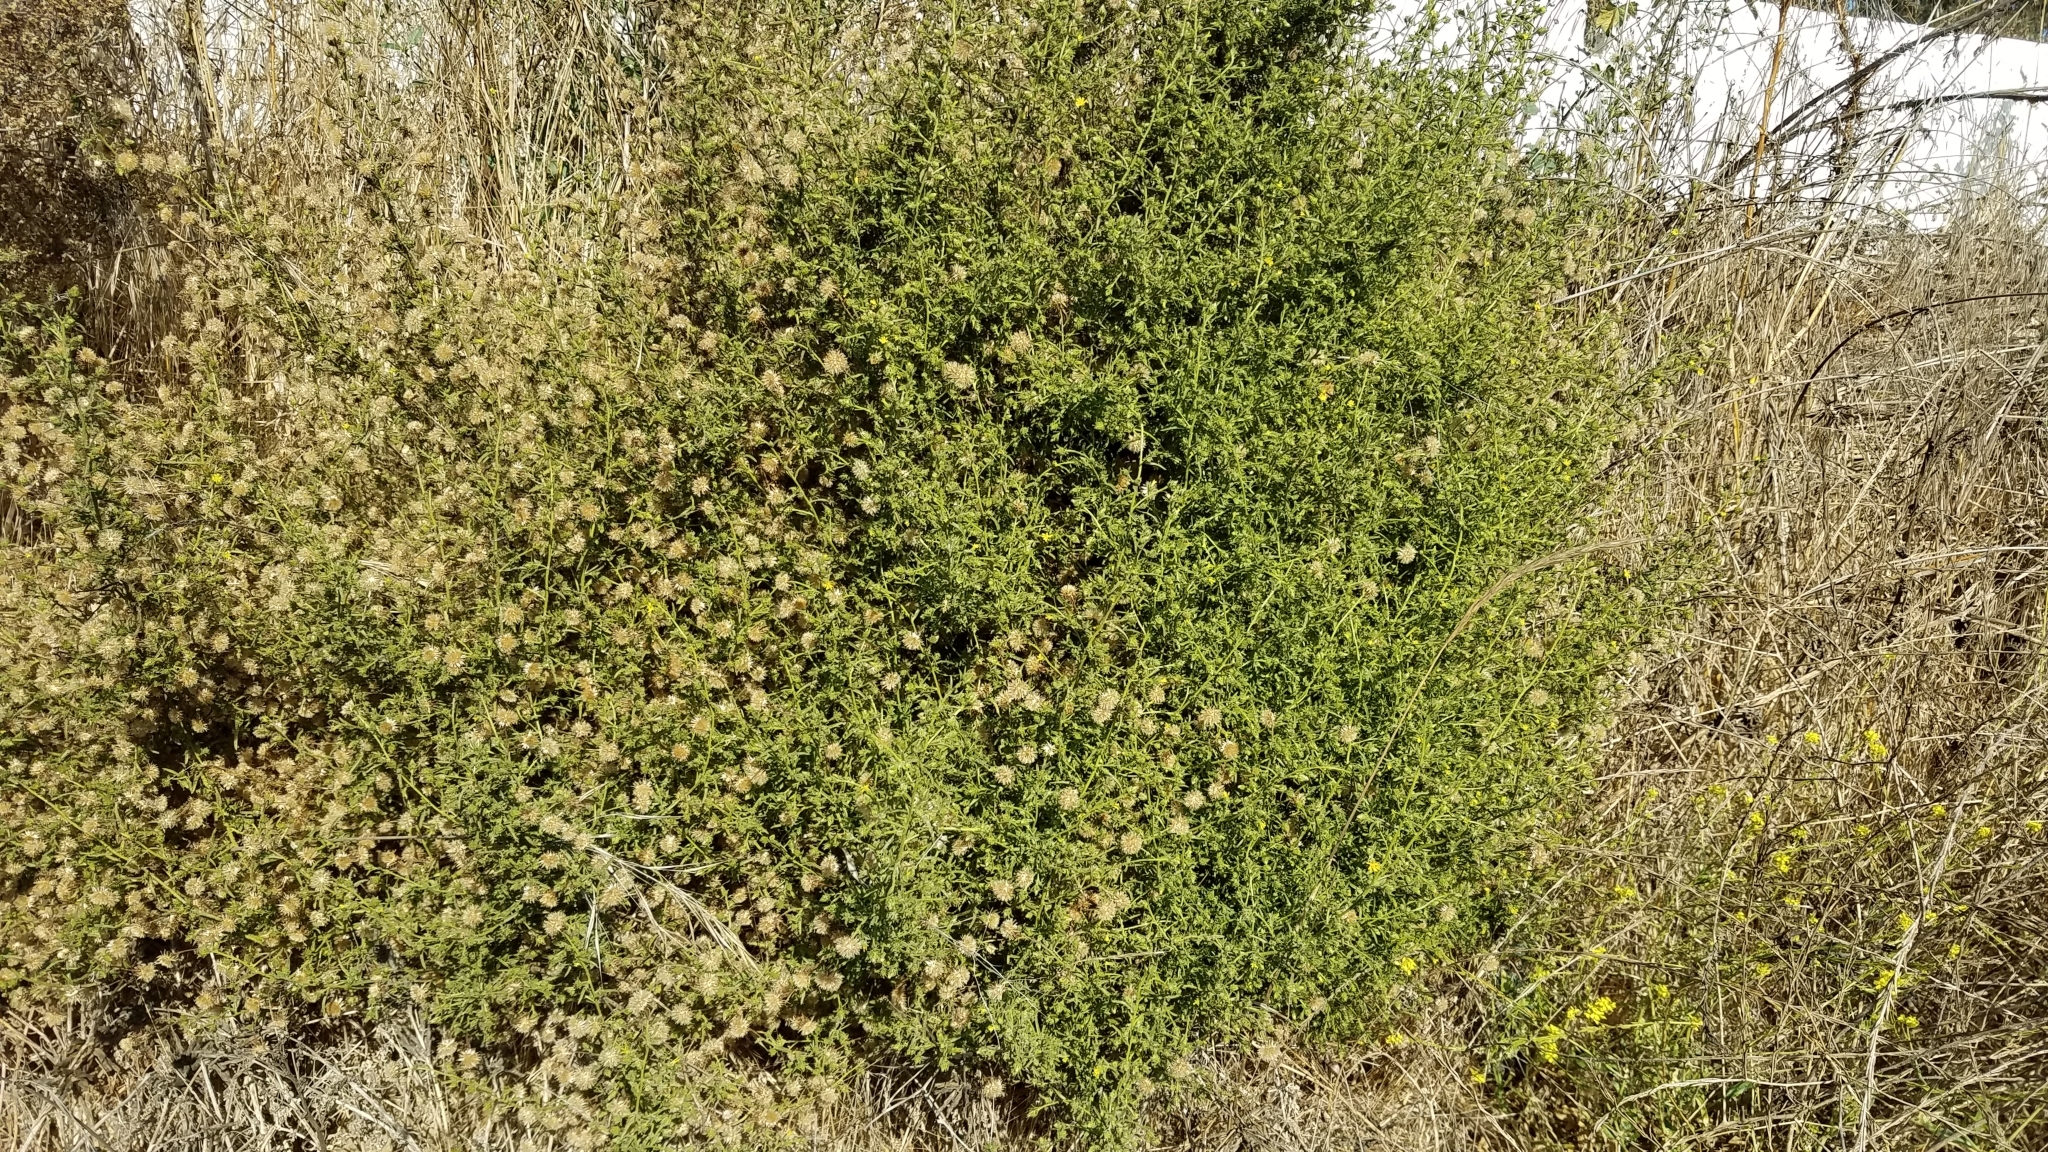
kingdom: Plantae
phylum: Tracheophyta
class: Magnoliopsida
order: Asterales
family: Asteraceae
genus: Dittrichia
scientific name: Dittrichia graveolens
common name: Stinking fleabane
